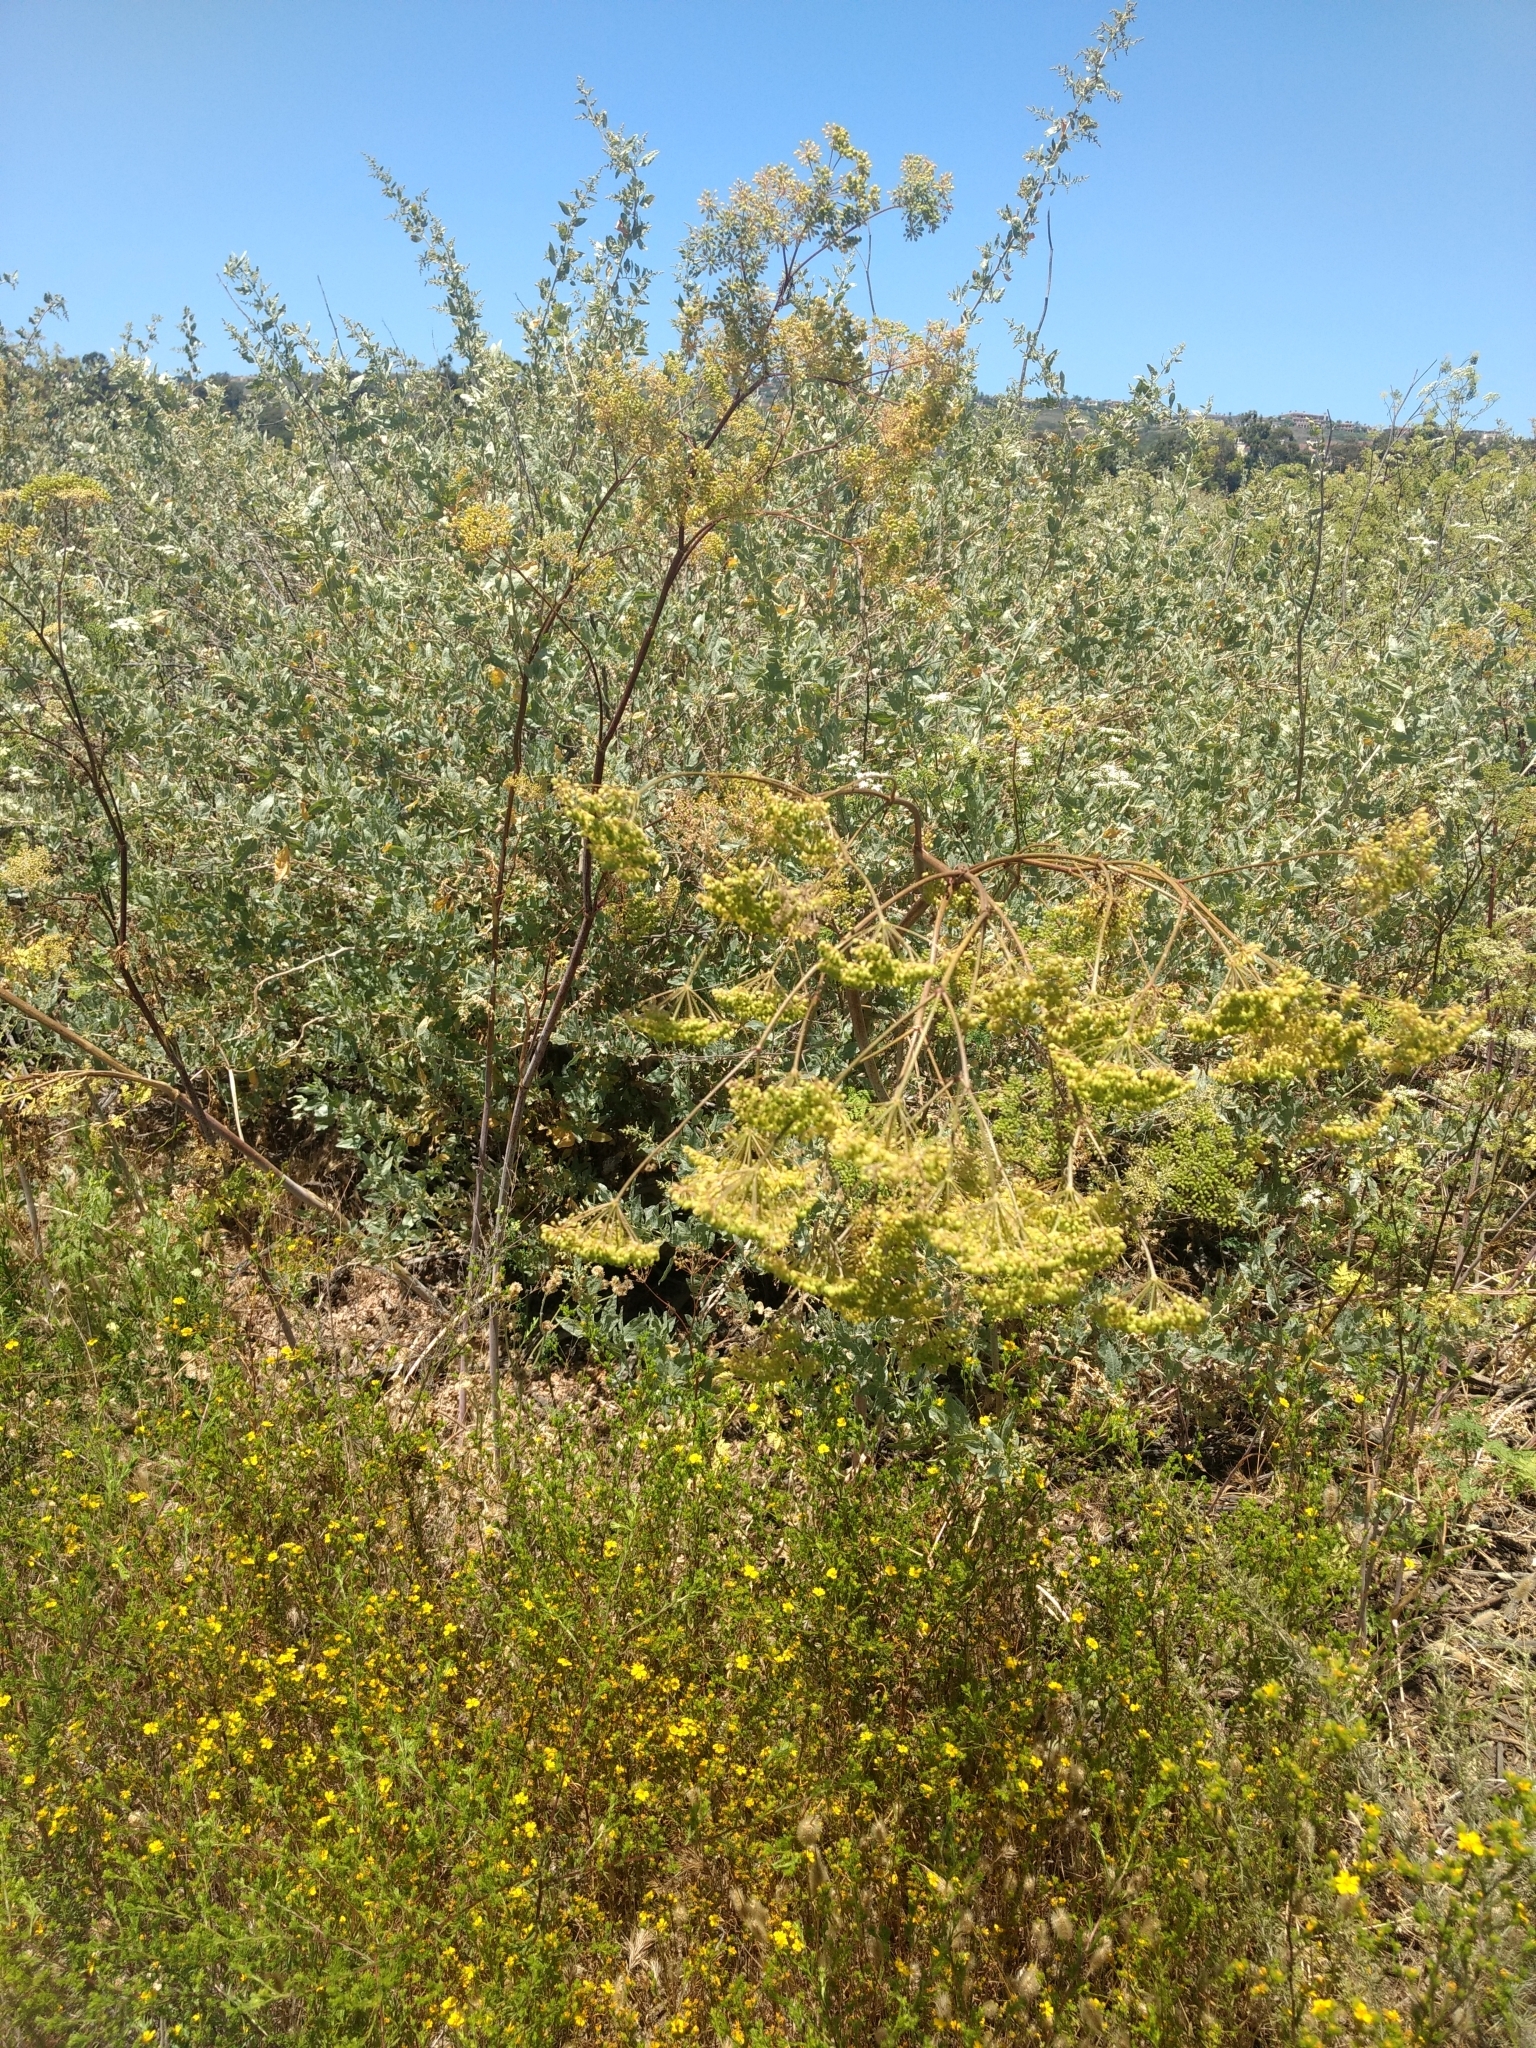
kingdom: Plantae
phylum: Tracheophyta
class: Magnoliopsida
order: Apiales
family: Apiaceae
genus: Conium
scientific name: Conium maculatum
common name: Hemlock
